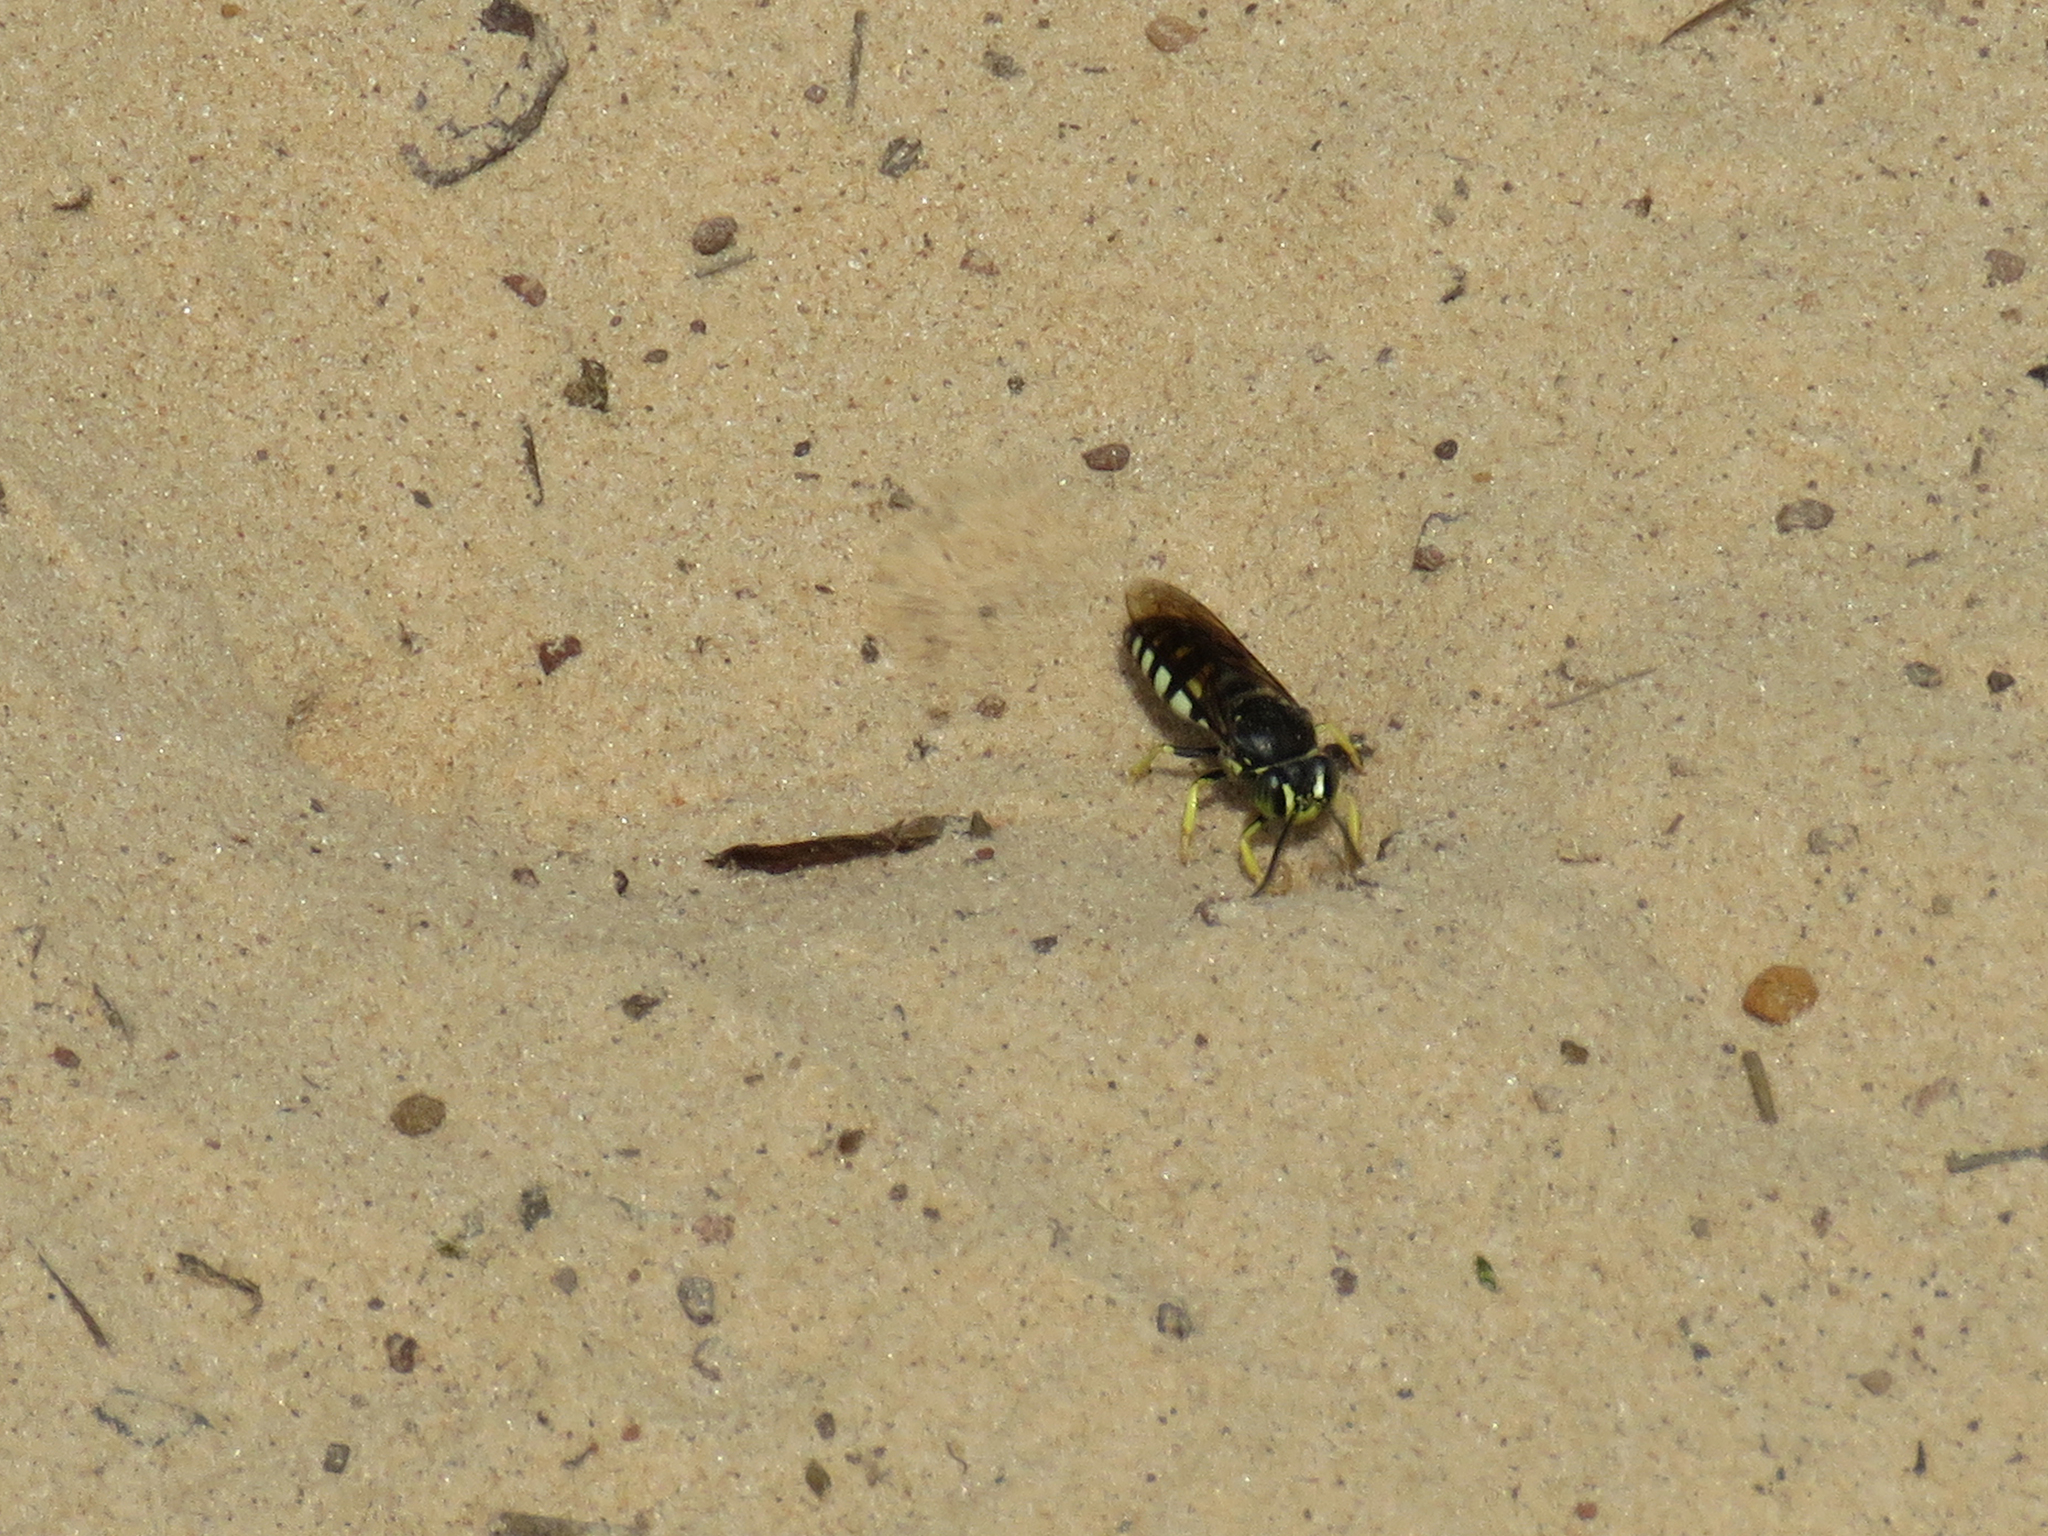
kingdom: Animalia
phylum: Arthropoda
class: Insecta
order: Hymenoptera
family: Crabronidae
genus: Bicyrtes
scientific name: Bicyrtes quadrifasciatus
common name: Four-banded stink bug hunter wasp
